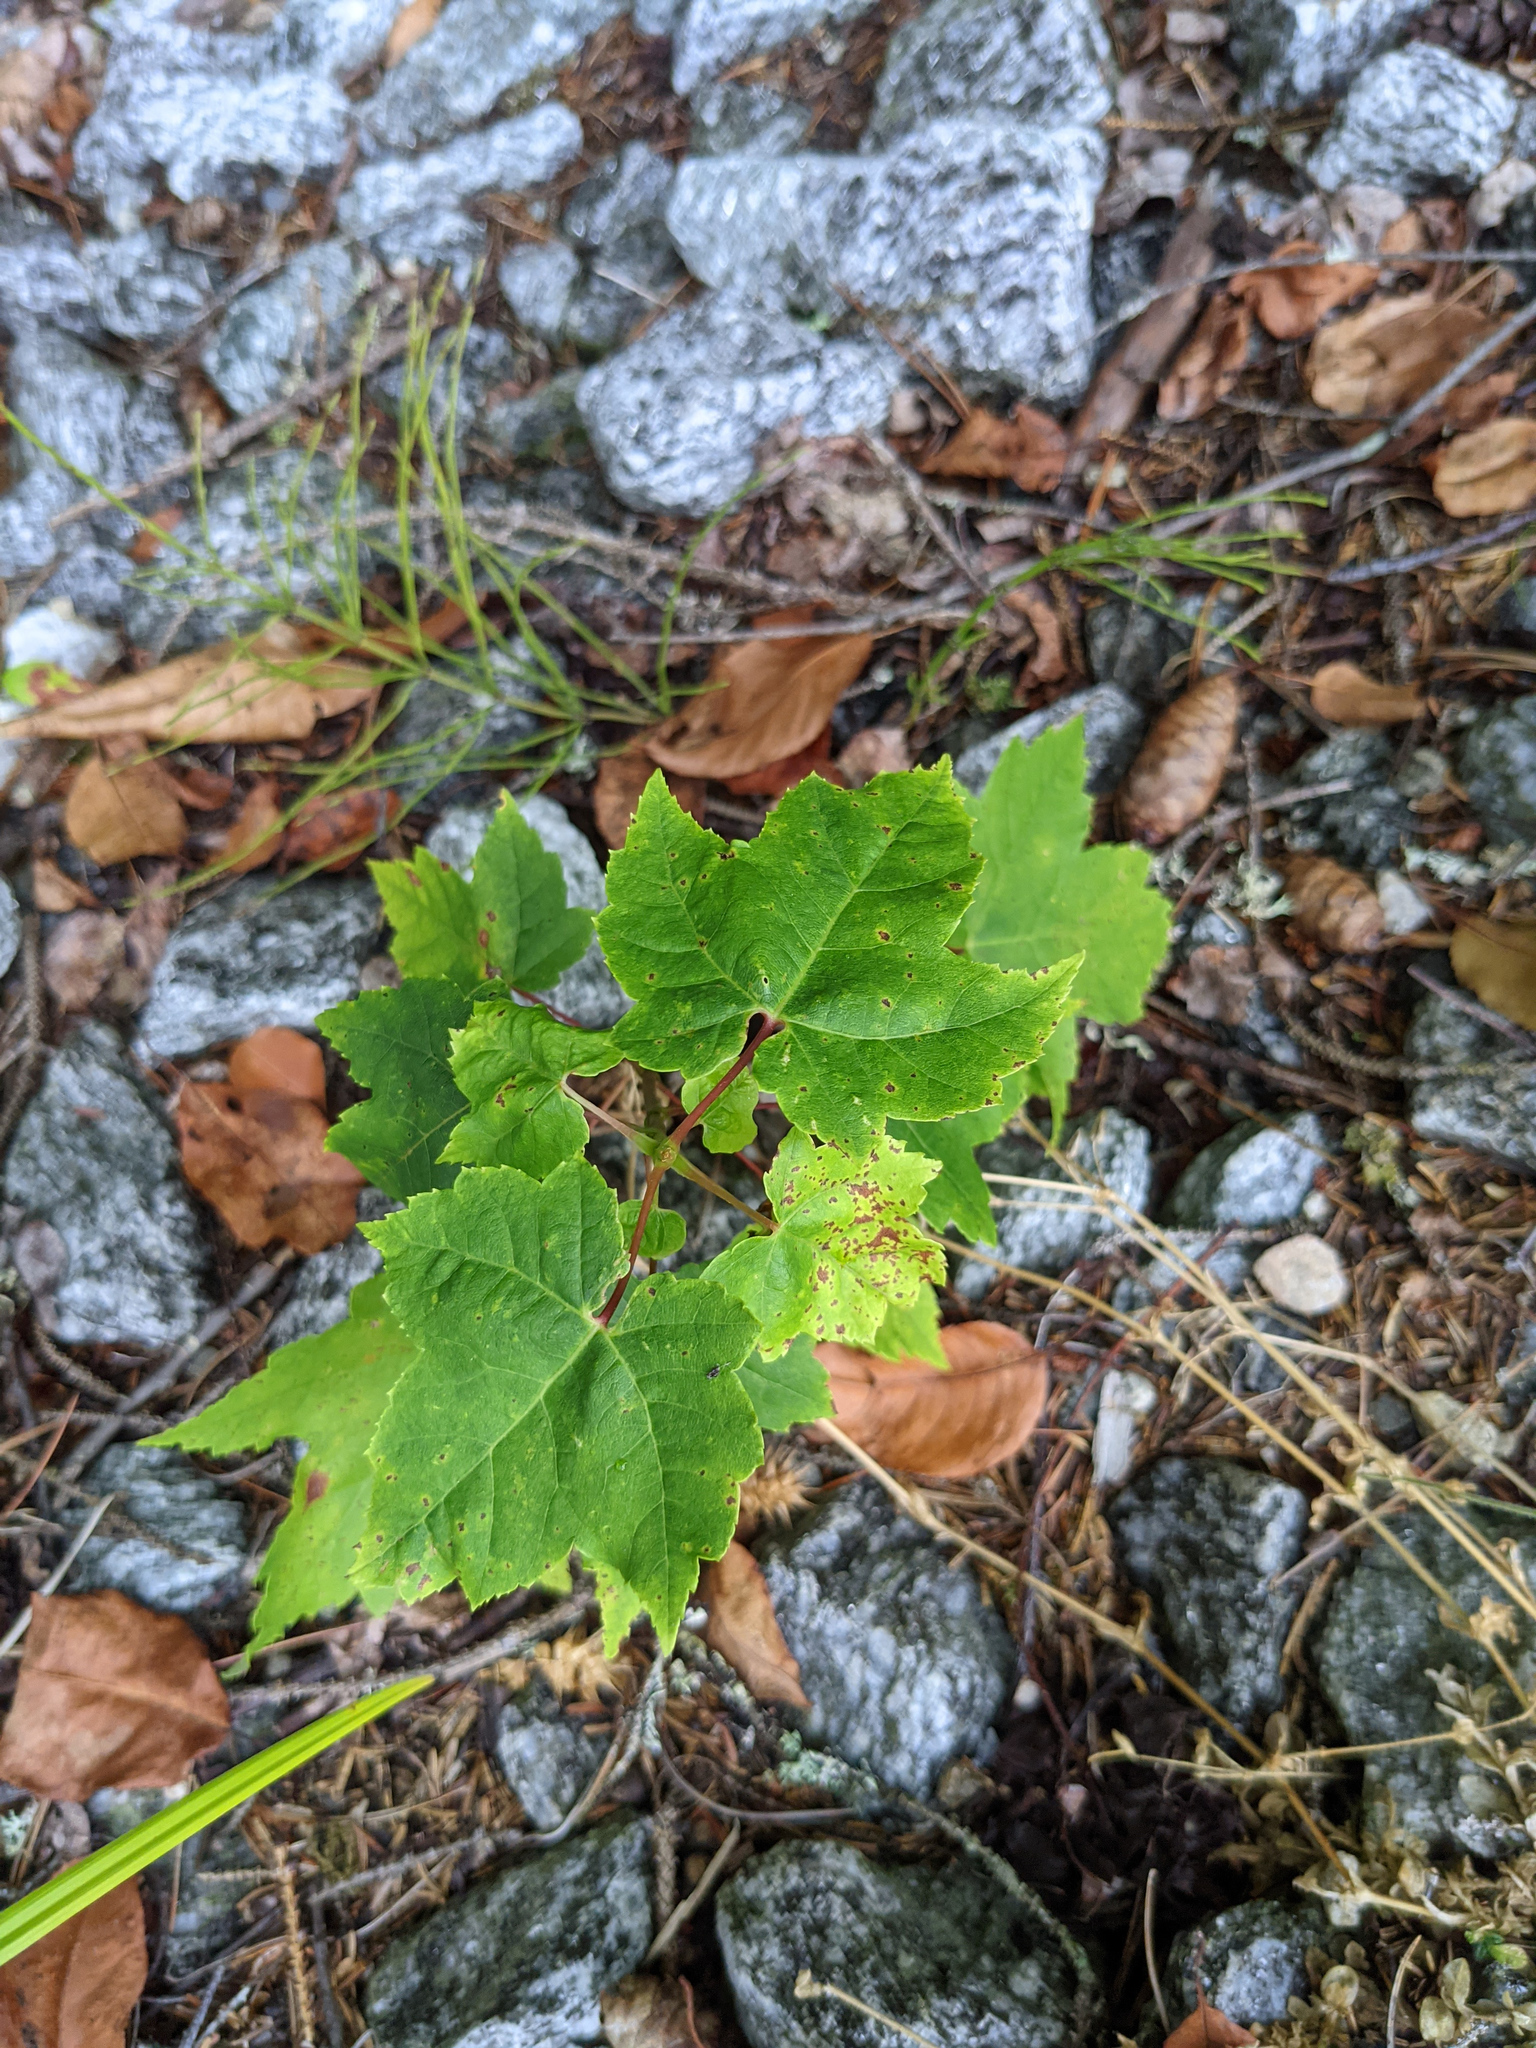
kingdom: Plantae
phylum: Tracheophyta
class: Magnoliopsida
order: Sapindales
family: Sapindaceae
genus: Acer
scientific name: Acer rubrum
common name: Red maple
